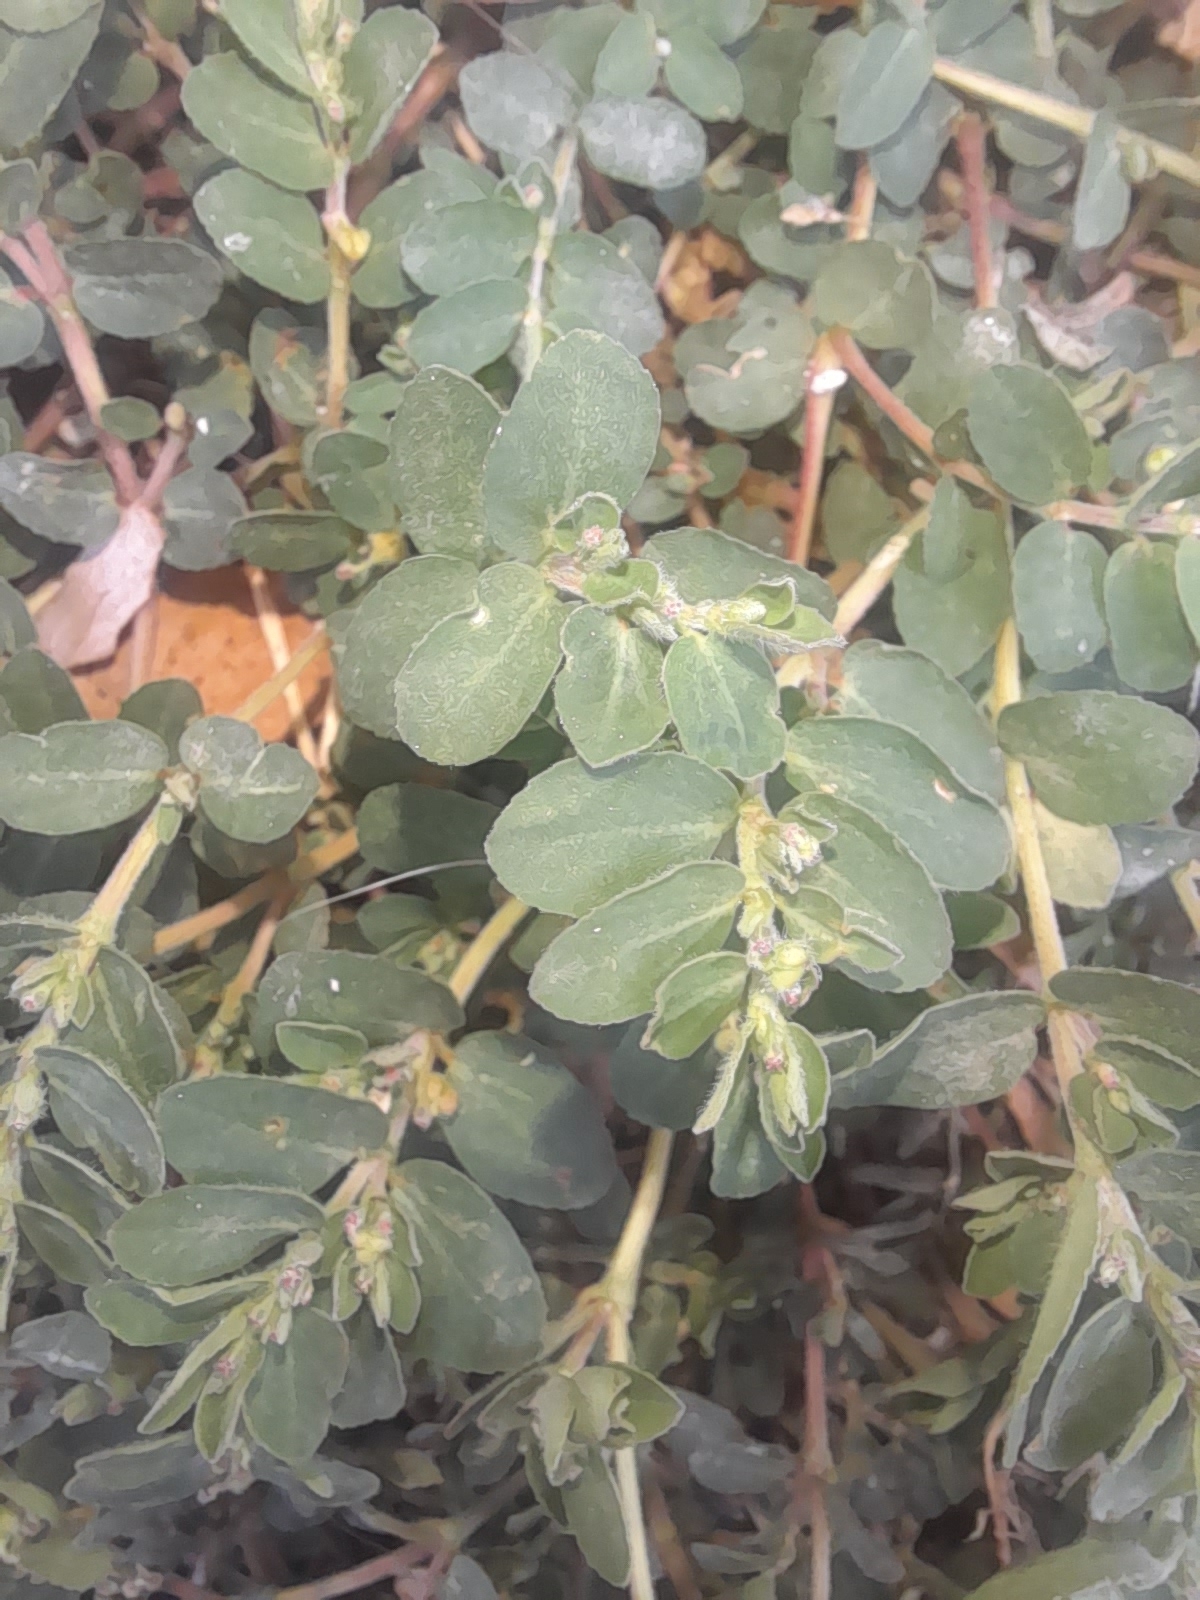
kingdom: Plantae
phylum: Tracheophyta
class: Magnoliopsida
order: Malpighiales
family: Euphorbiaceae
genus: Euphorbia
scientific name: Euphorbia prostrata
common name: Prostrate sandmat
